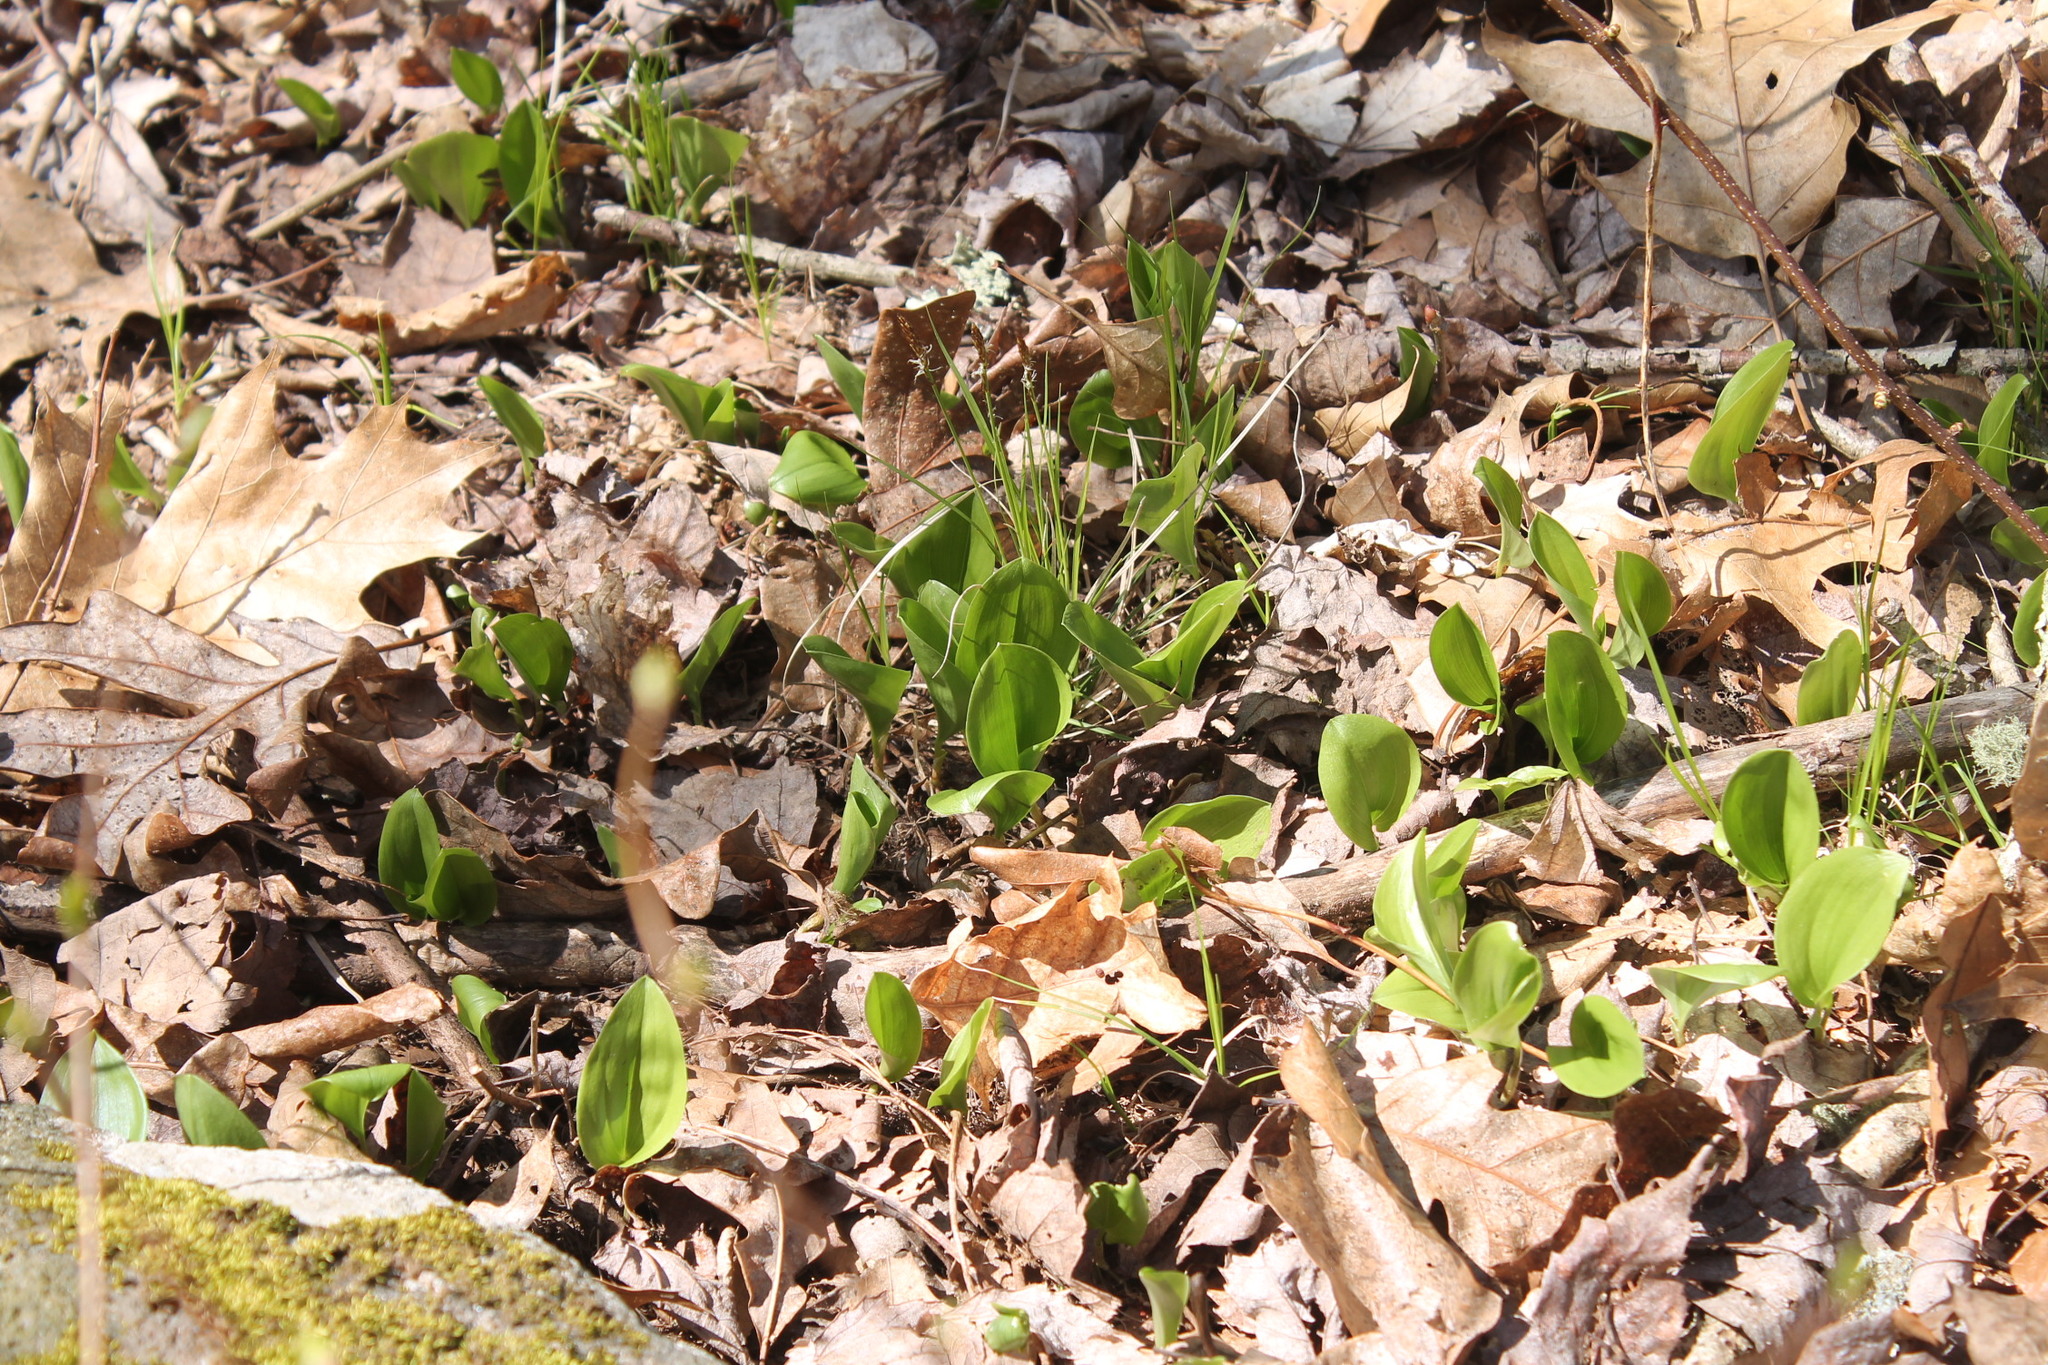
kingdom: Plantae
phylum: Tracheophyta
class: Liliopsida
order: Asparagales
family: Asparagaceae
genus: Maianthemum
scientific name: Maianthemum canadense
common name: False lily-of-the-valley
